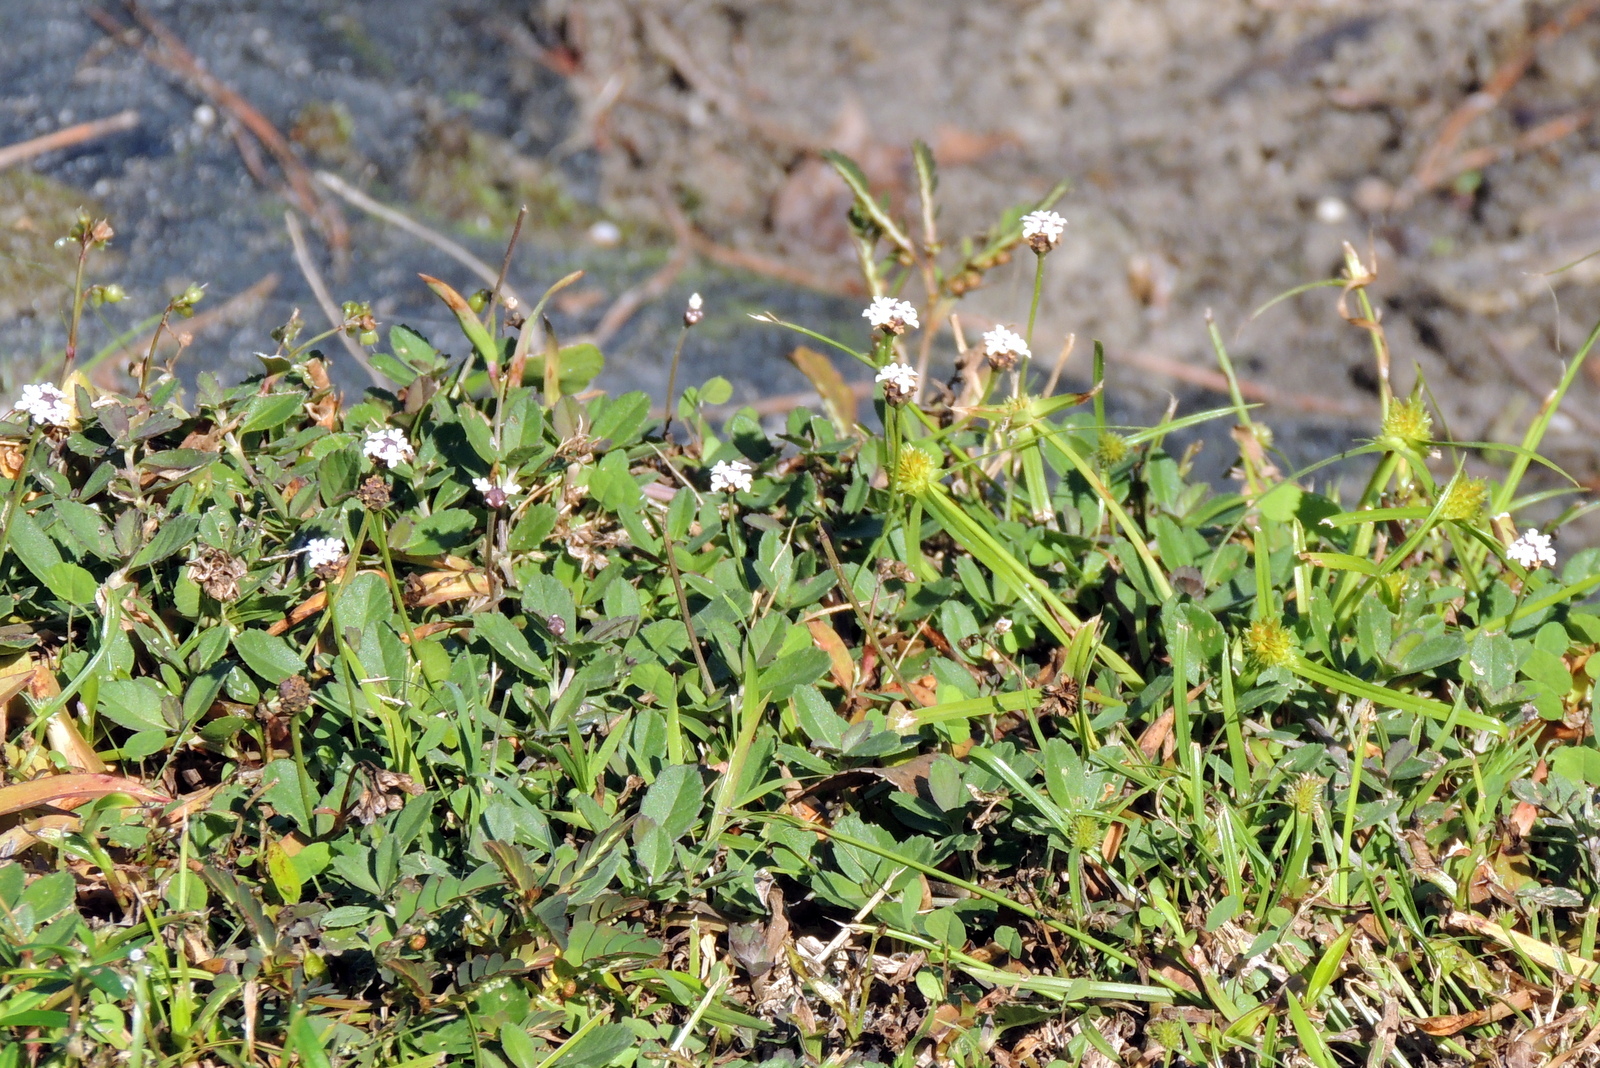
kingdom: Plantae
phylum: Tracheophyta
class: Magnoliopsida
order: Lamiales
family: Verbenaceae
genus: Phyla
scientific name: Phyla nodiflora
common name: Frogfruit
